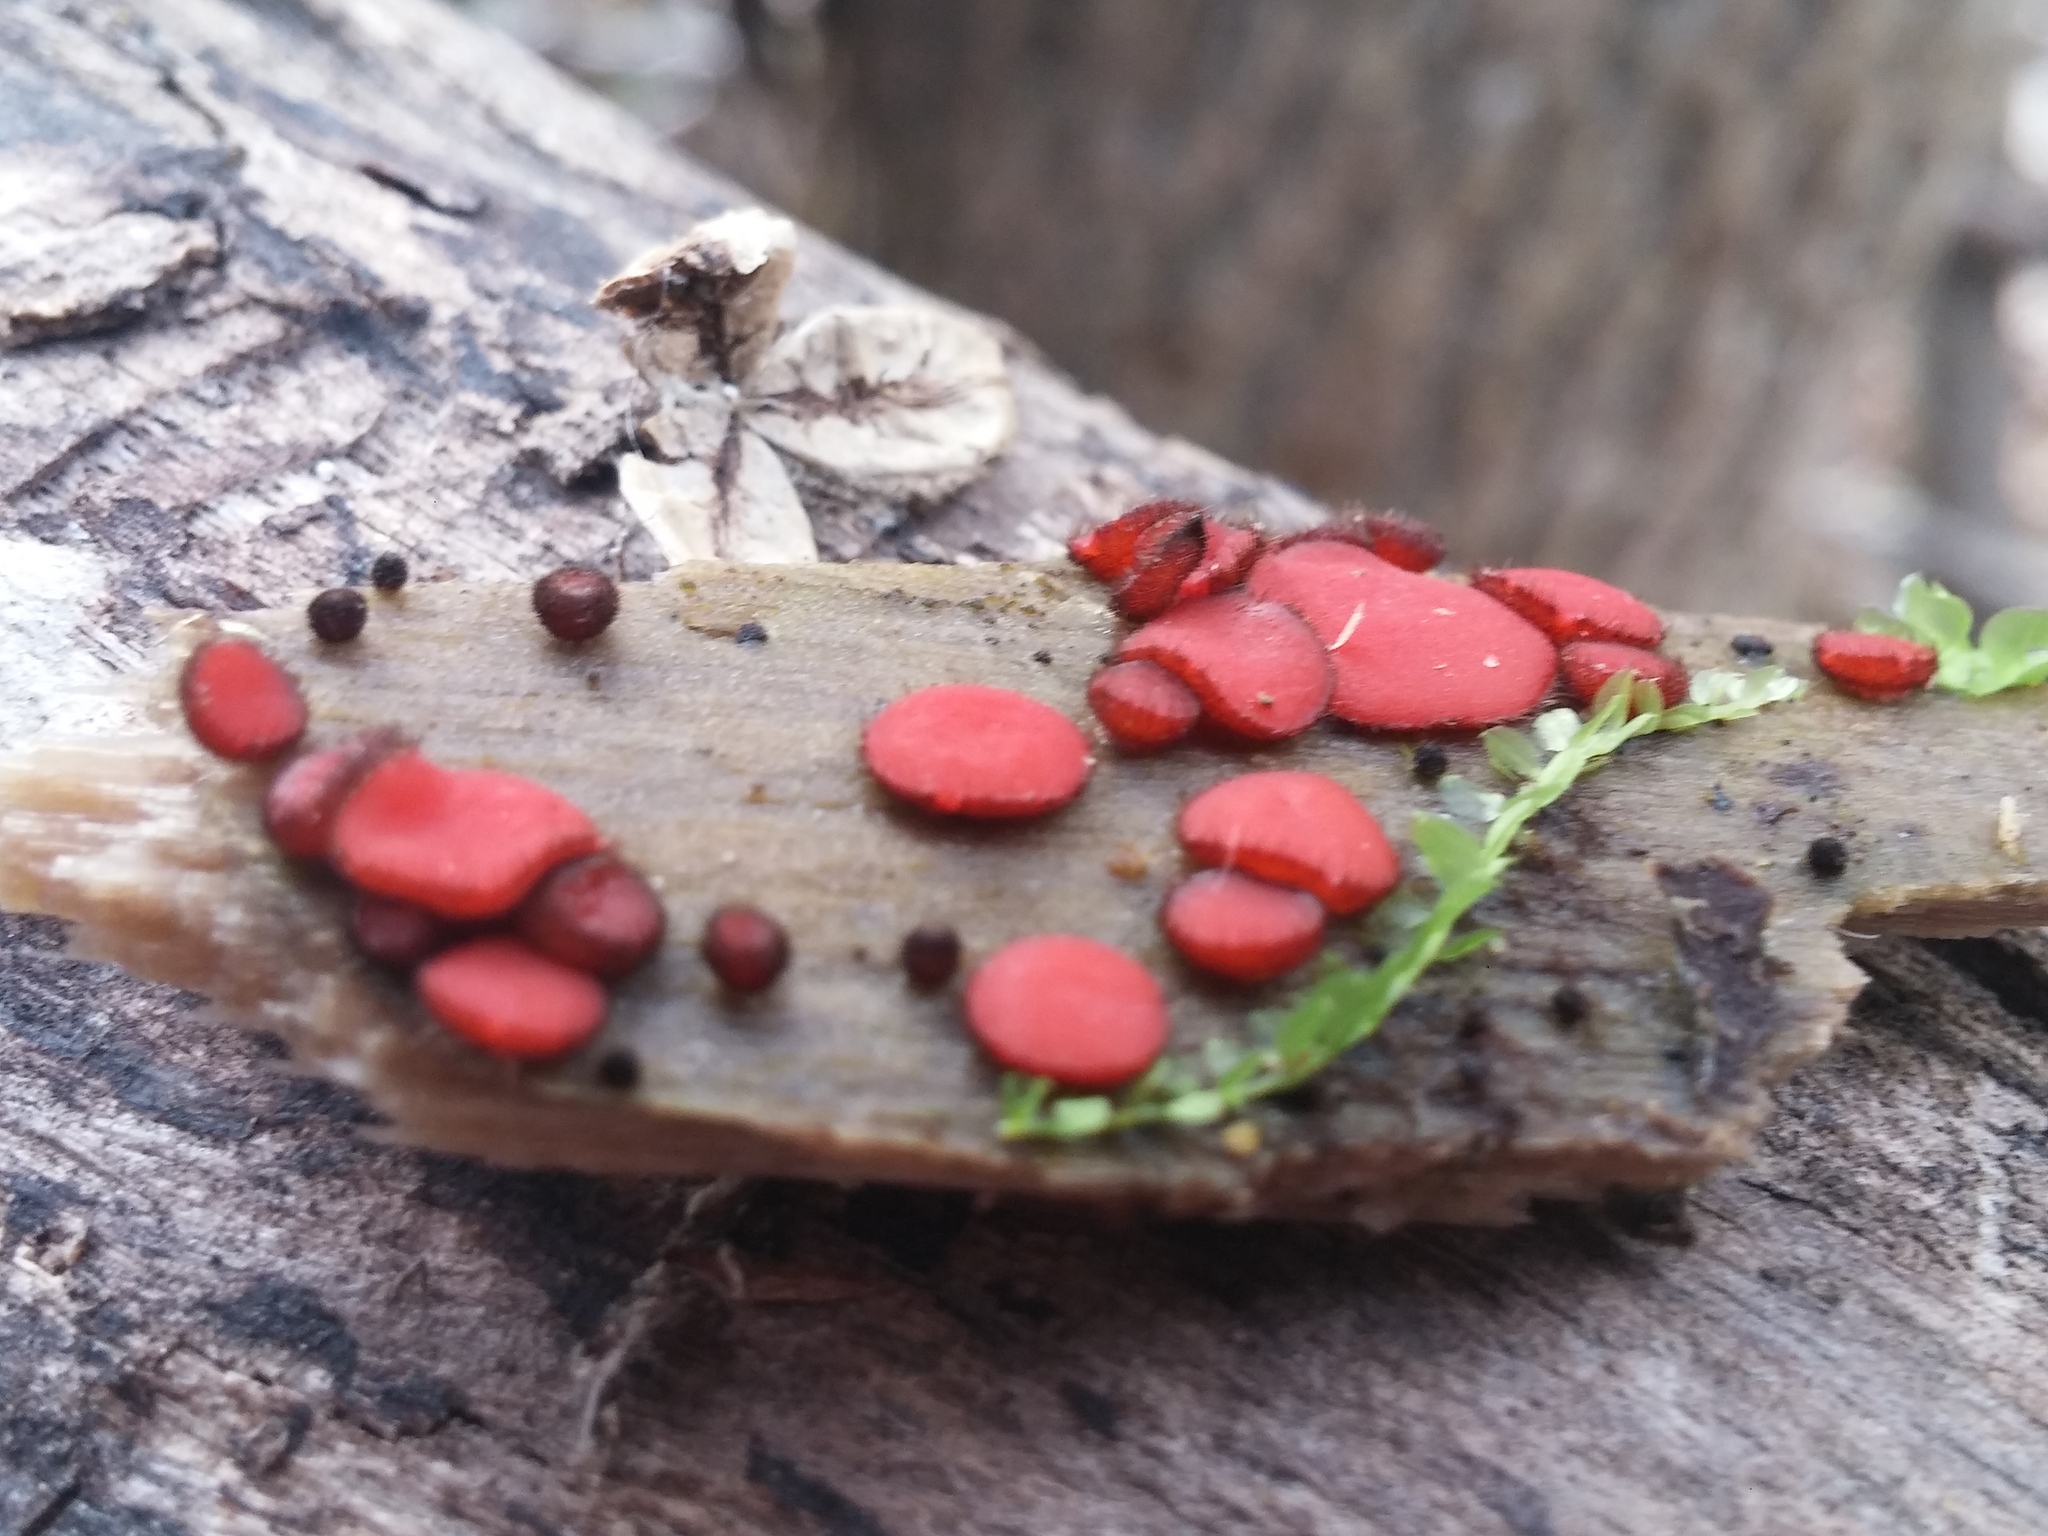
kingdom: Fungi
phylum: Ascomycota
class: Pezizomycetes
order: Pezizales
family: Pyronemataceae
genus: Scutellinia
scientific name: Scutellinia
